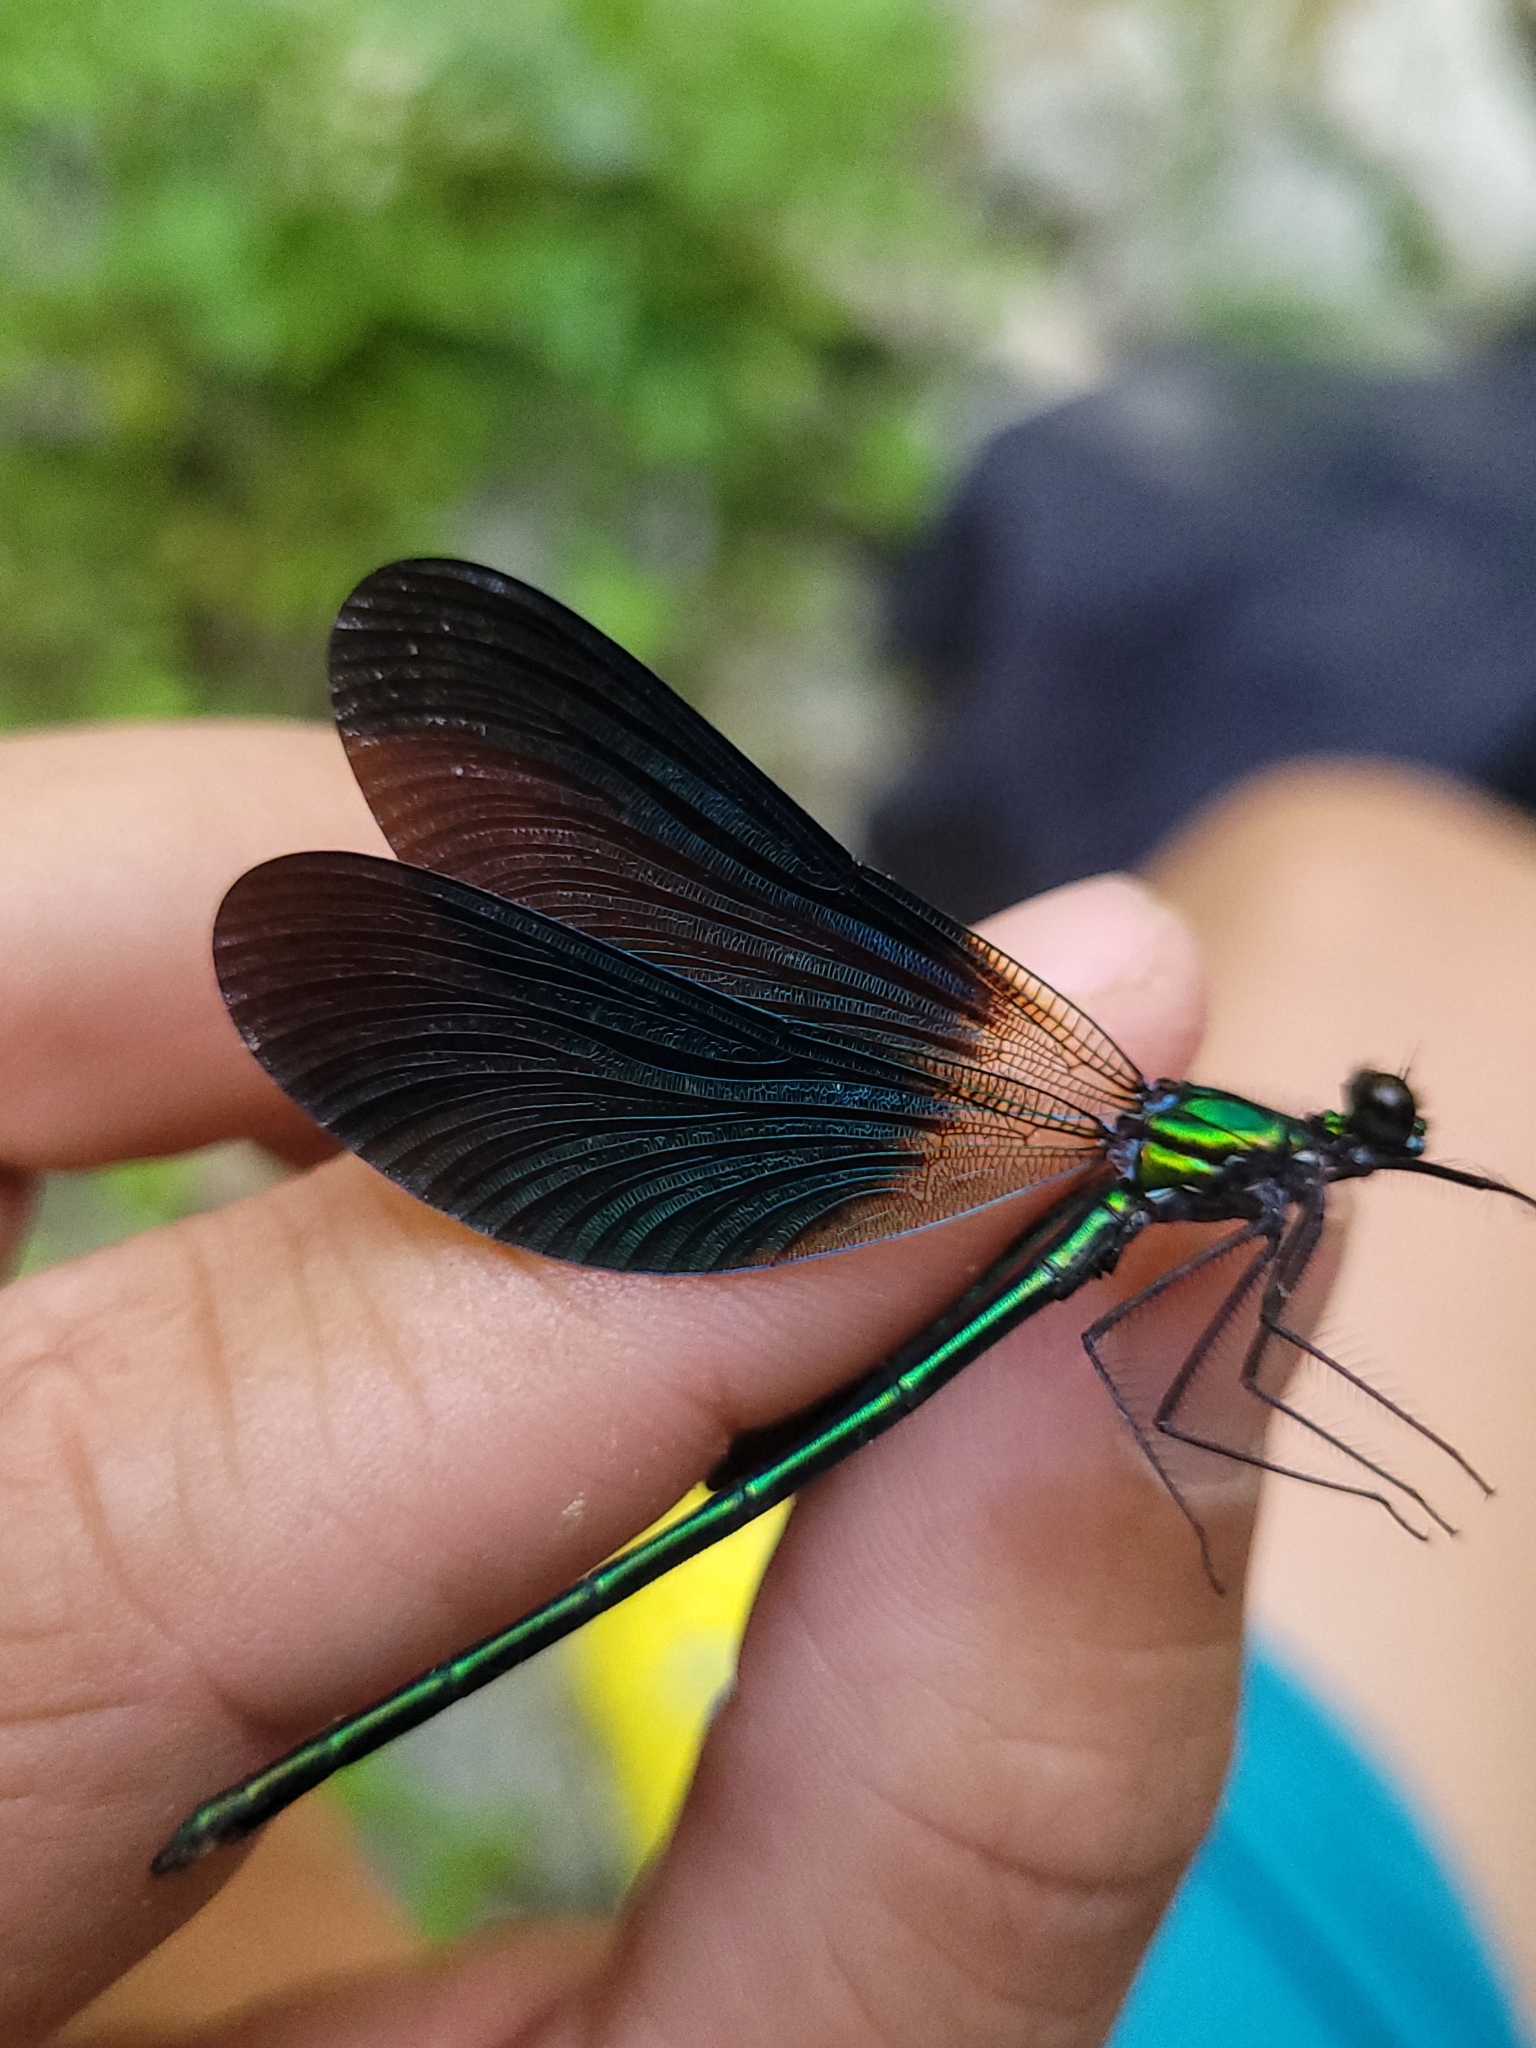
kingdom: Animalia
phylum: Arthropoda
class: Insecta
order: Odonata
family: Calopterygidae
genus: Calopteryx
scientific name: Calopteryx virgo
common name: Beautiful demoiselle
